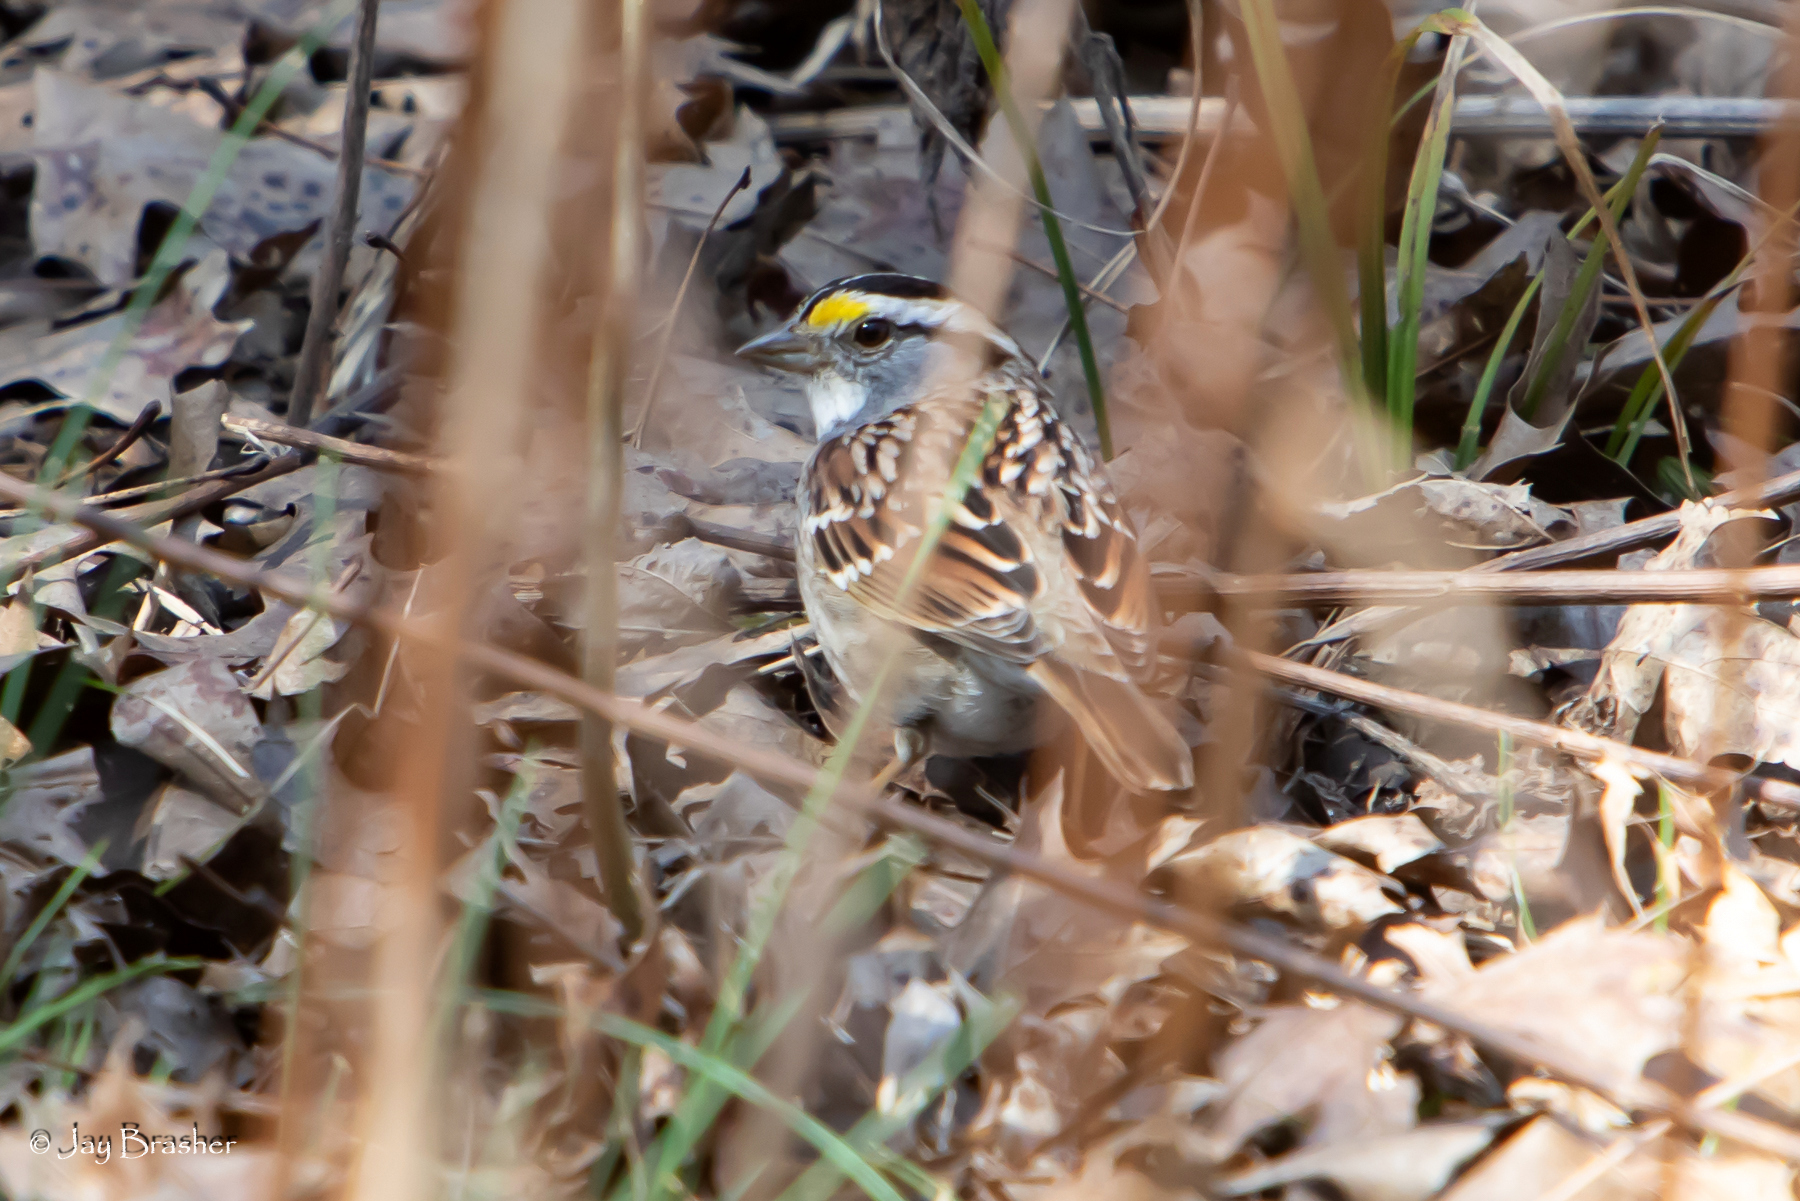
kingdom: Animalia
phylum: Chordata
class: Aves
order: Passeriformes
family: Passerellidae
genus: Zonotrichia
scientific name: Zonotrichia albicollis
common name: White-throated sparrow
